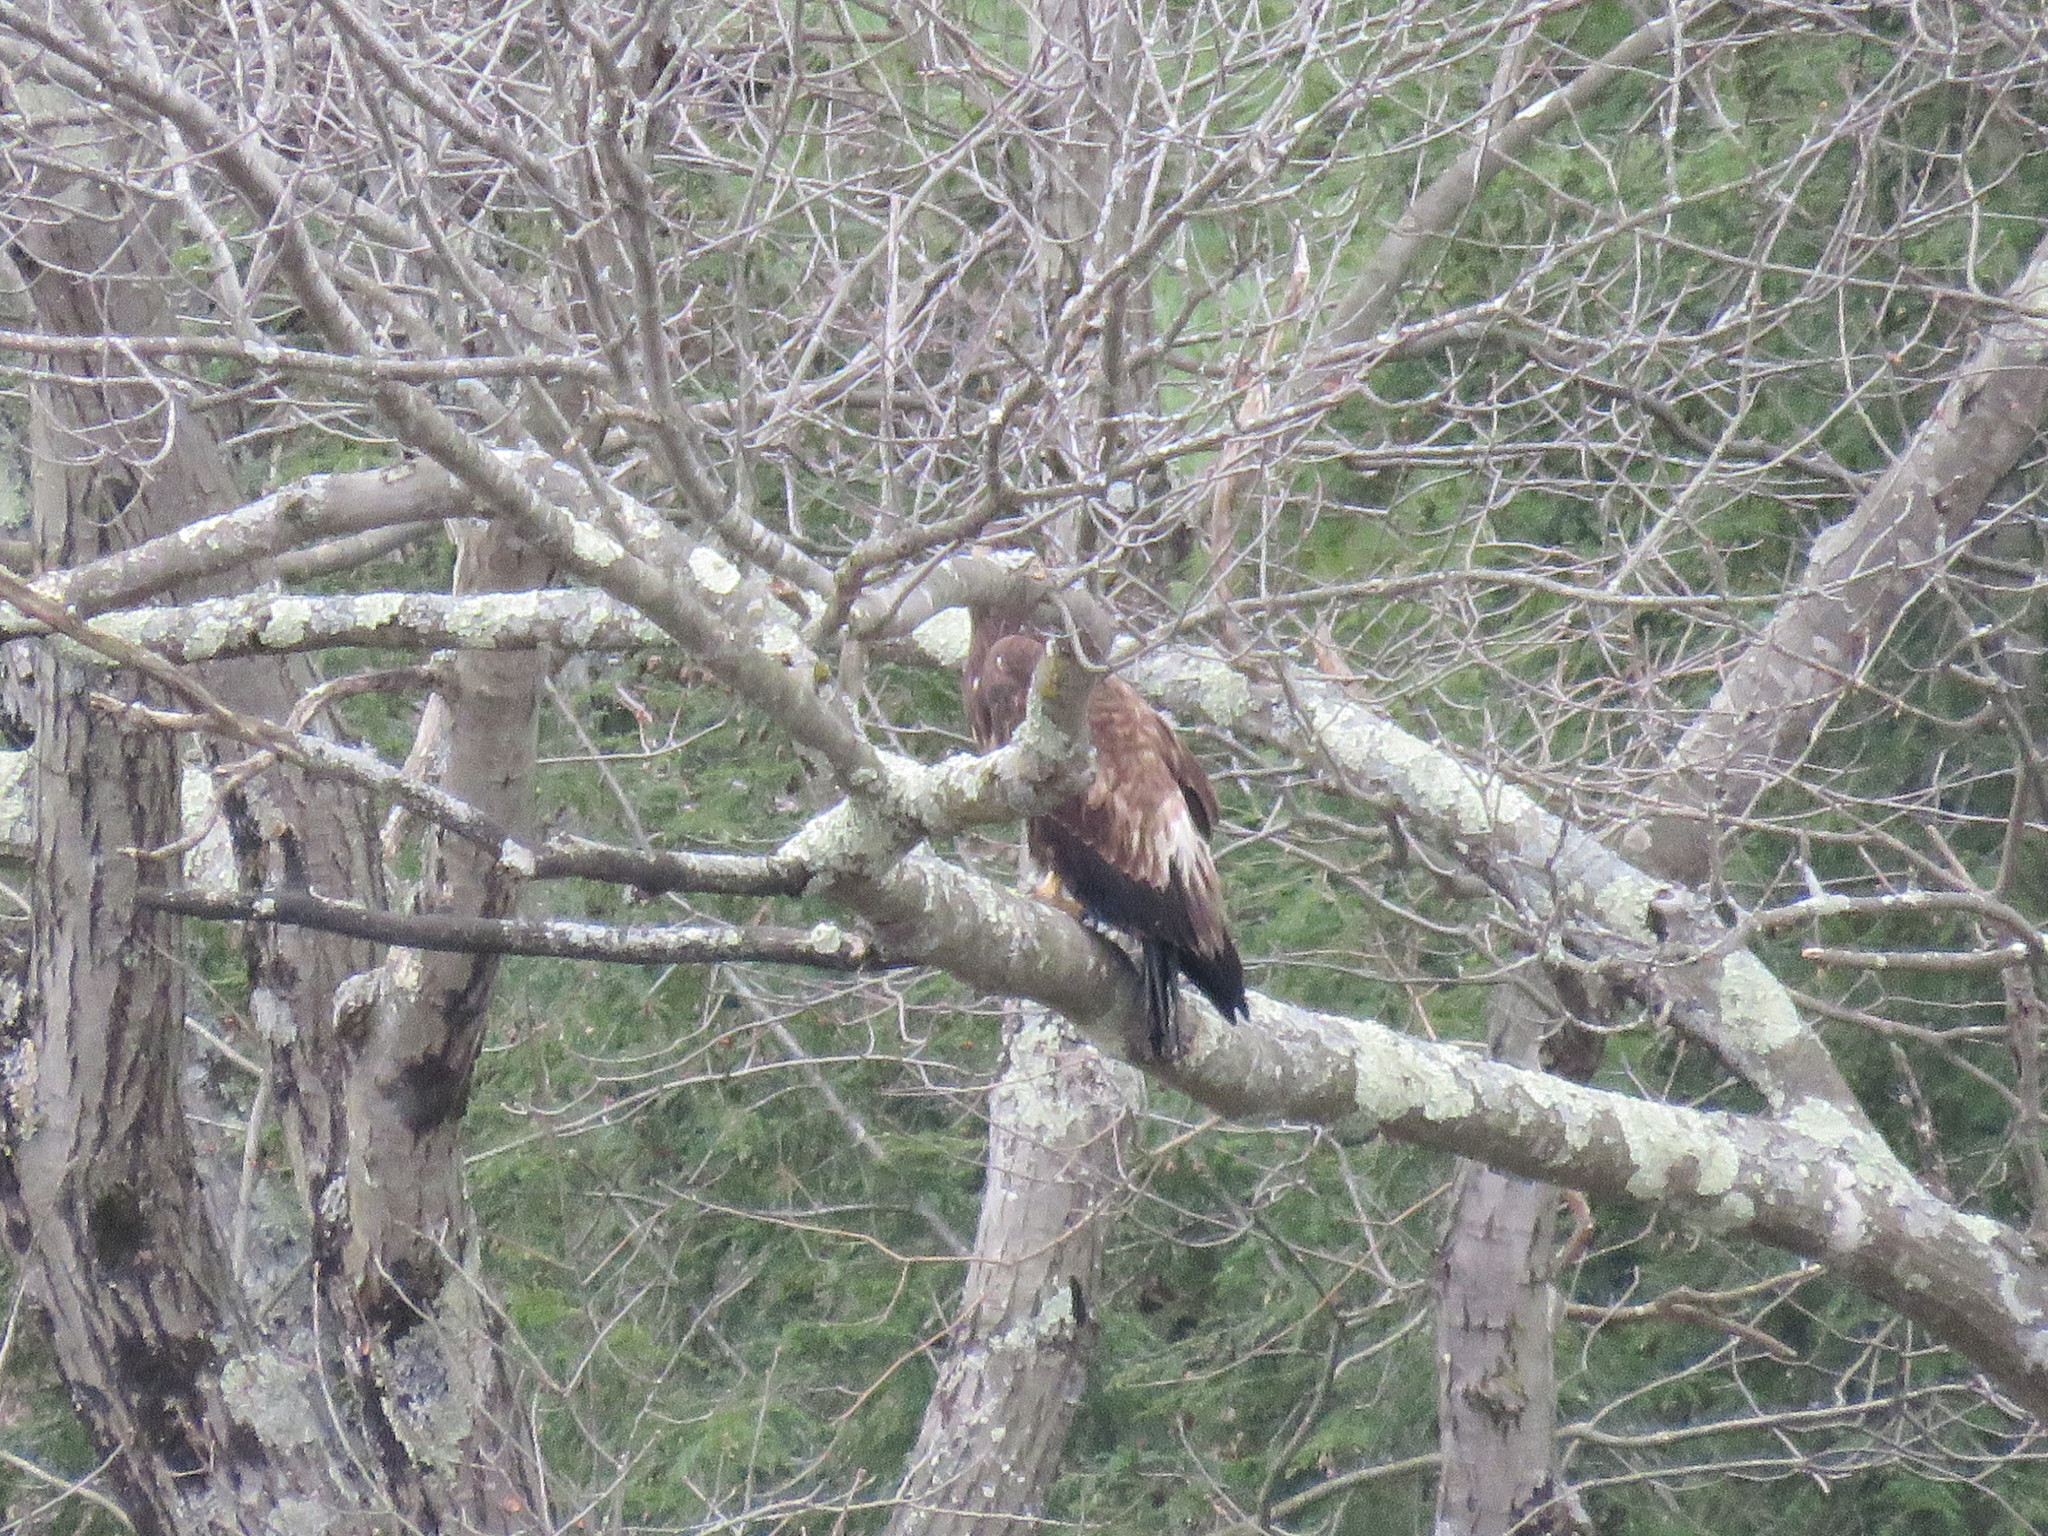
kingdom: Animalia
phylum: Chordata
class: Aves
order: Accipitriformes
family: Accipitridae
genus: Haliaeetus
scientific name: Haliaeetus leucocephalus
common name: Bald eagle
